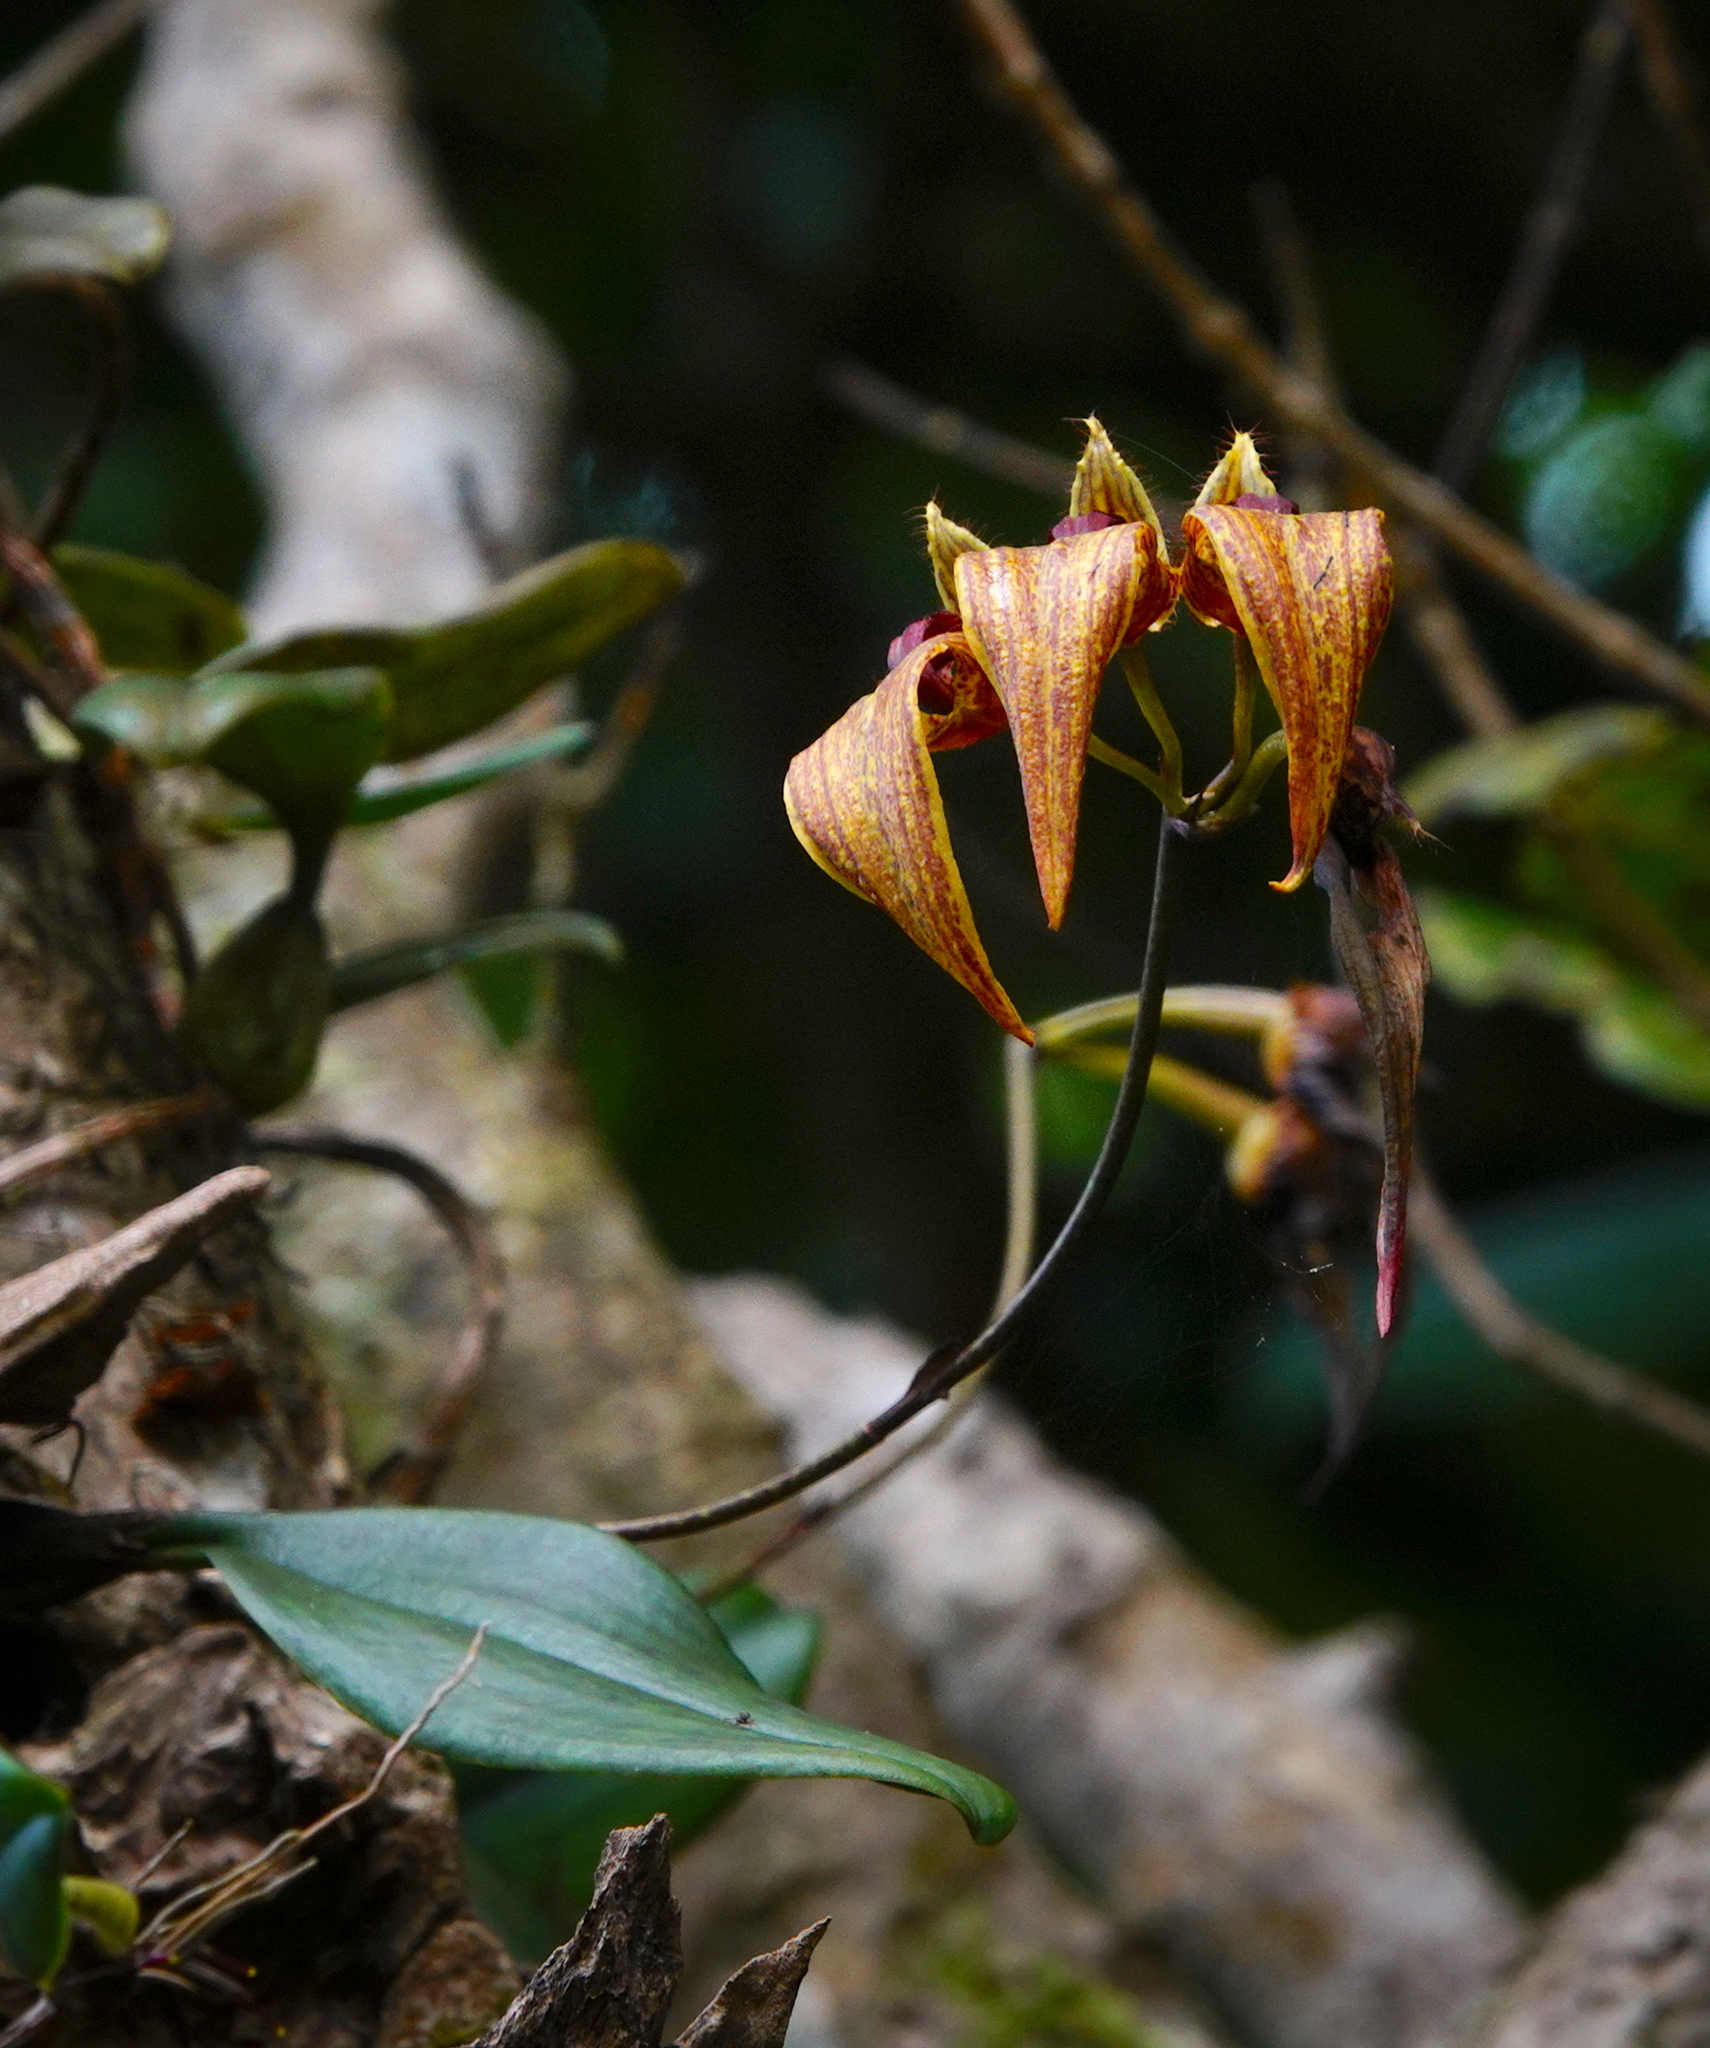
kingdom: Plantae
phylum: Tracheophyta
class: Liliopsida
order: Asparagales
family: Orchidaceae
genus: Bulbophyllum
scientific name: Bulbophyllum wightii
